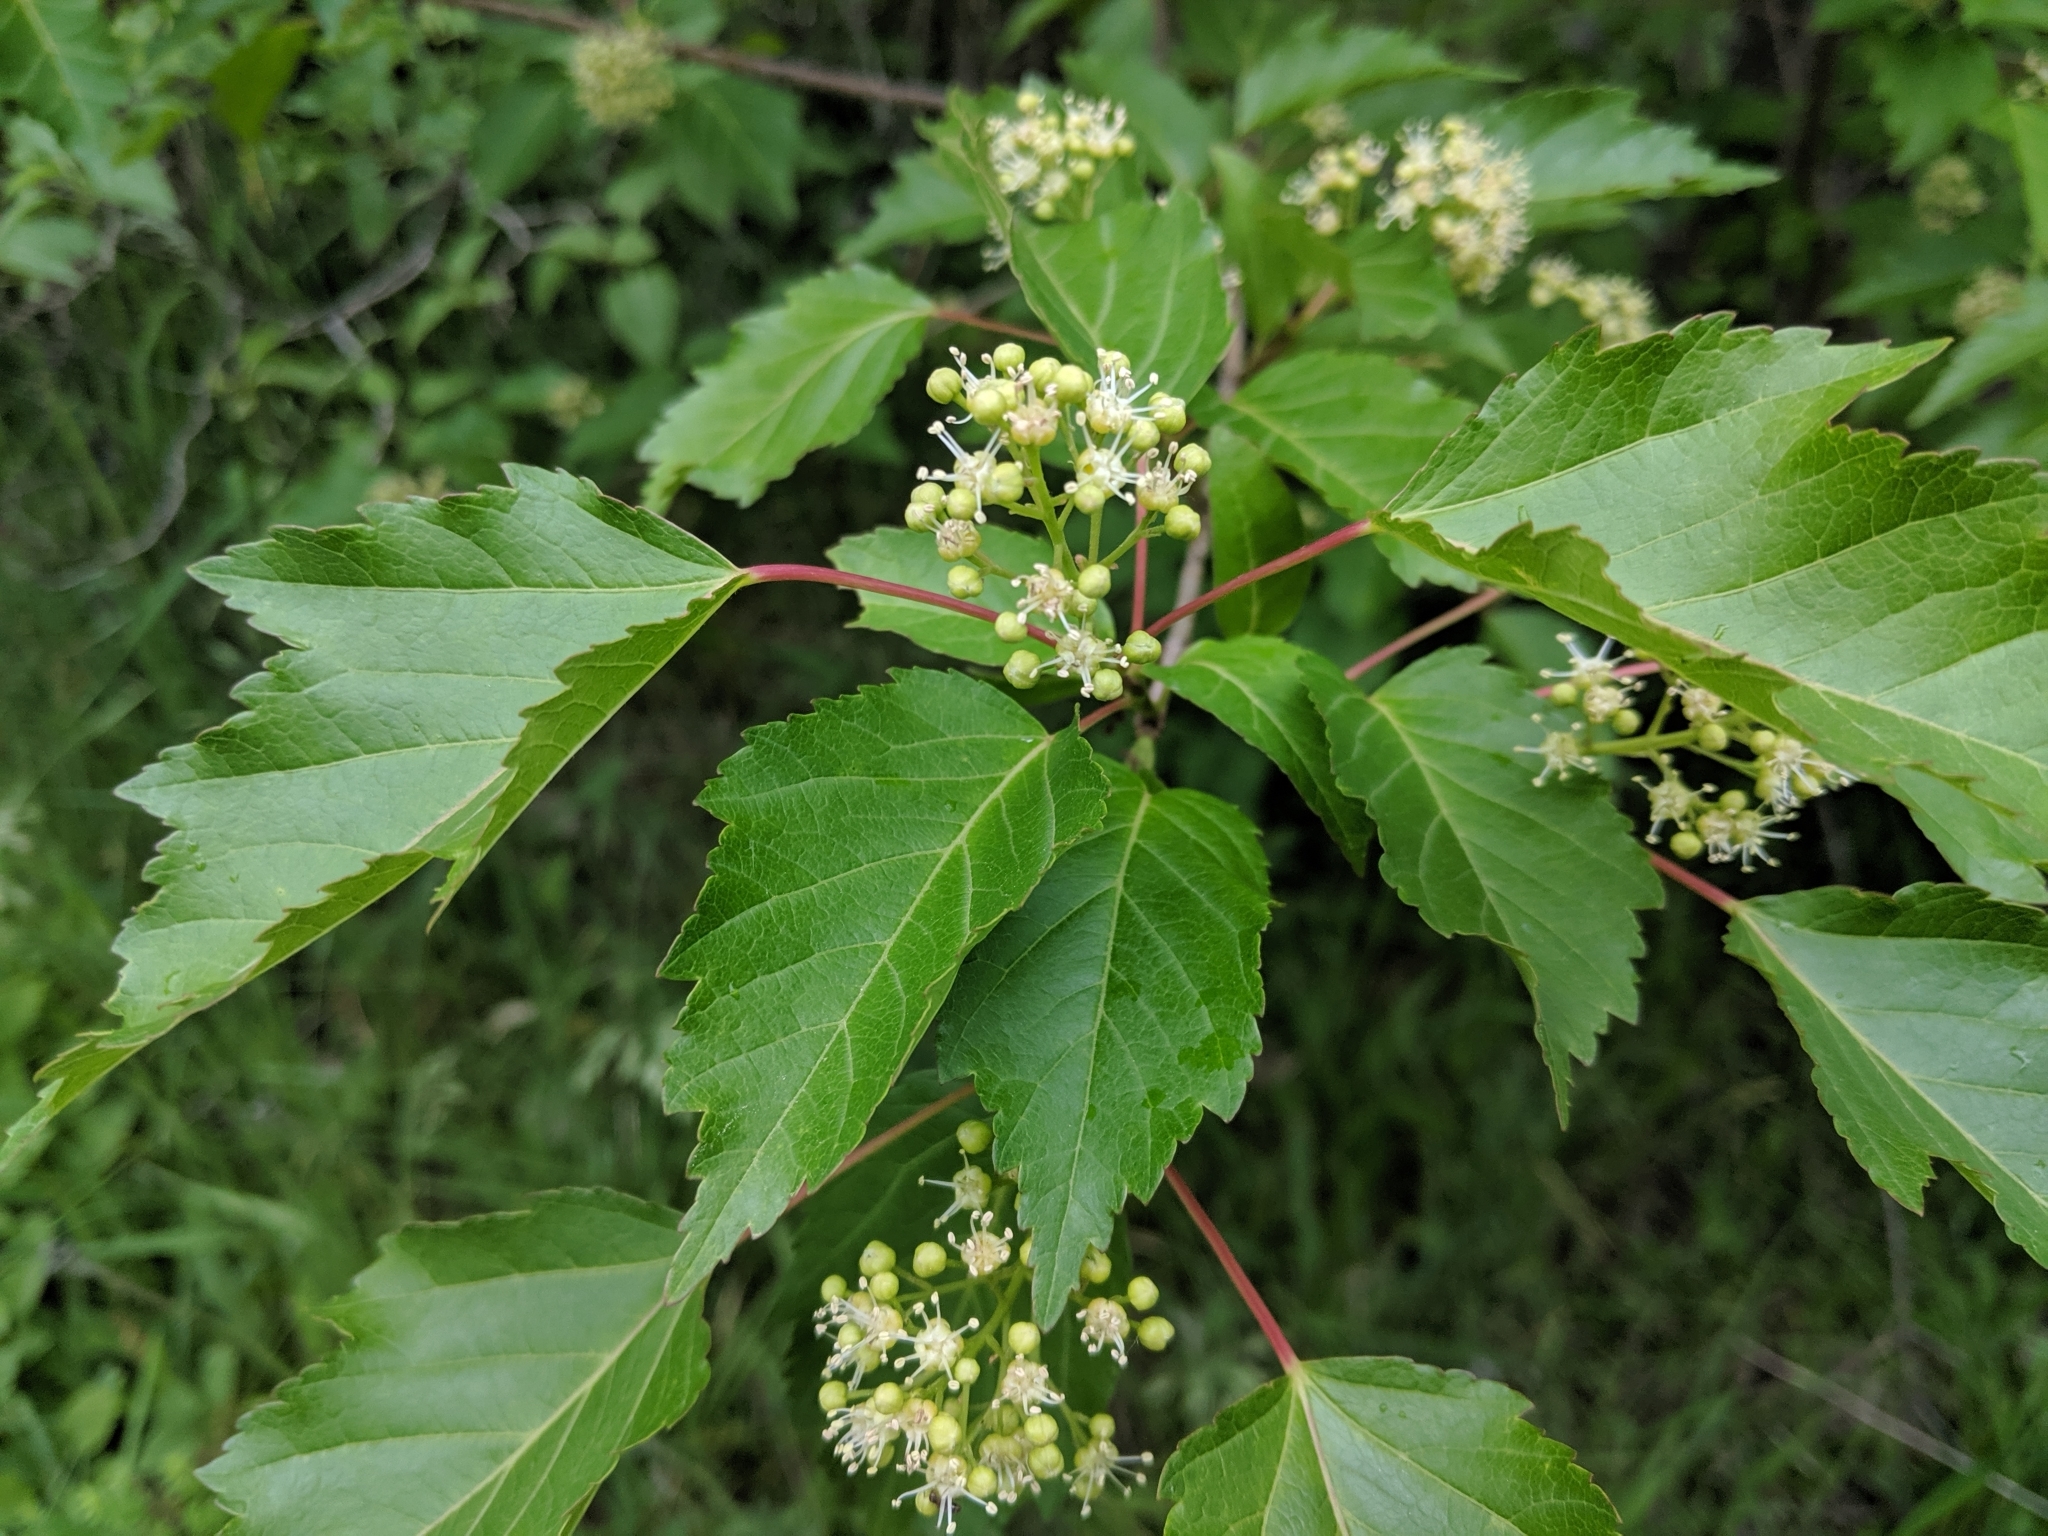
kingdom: Plantae
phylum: Tracheophyta
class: Magnoliopsida
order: Sapindales
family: Sapindaceae
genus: Acer
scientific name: Acer tataricum
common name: Tartar maple
